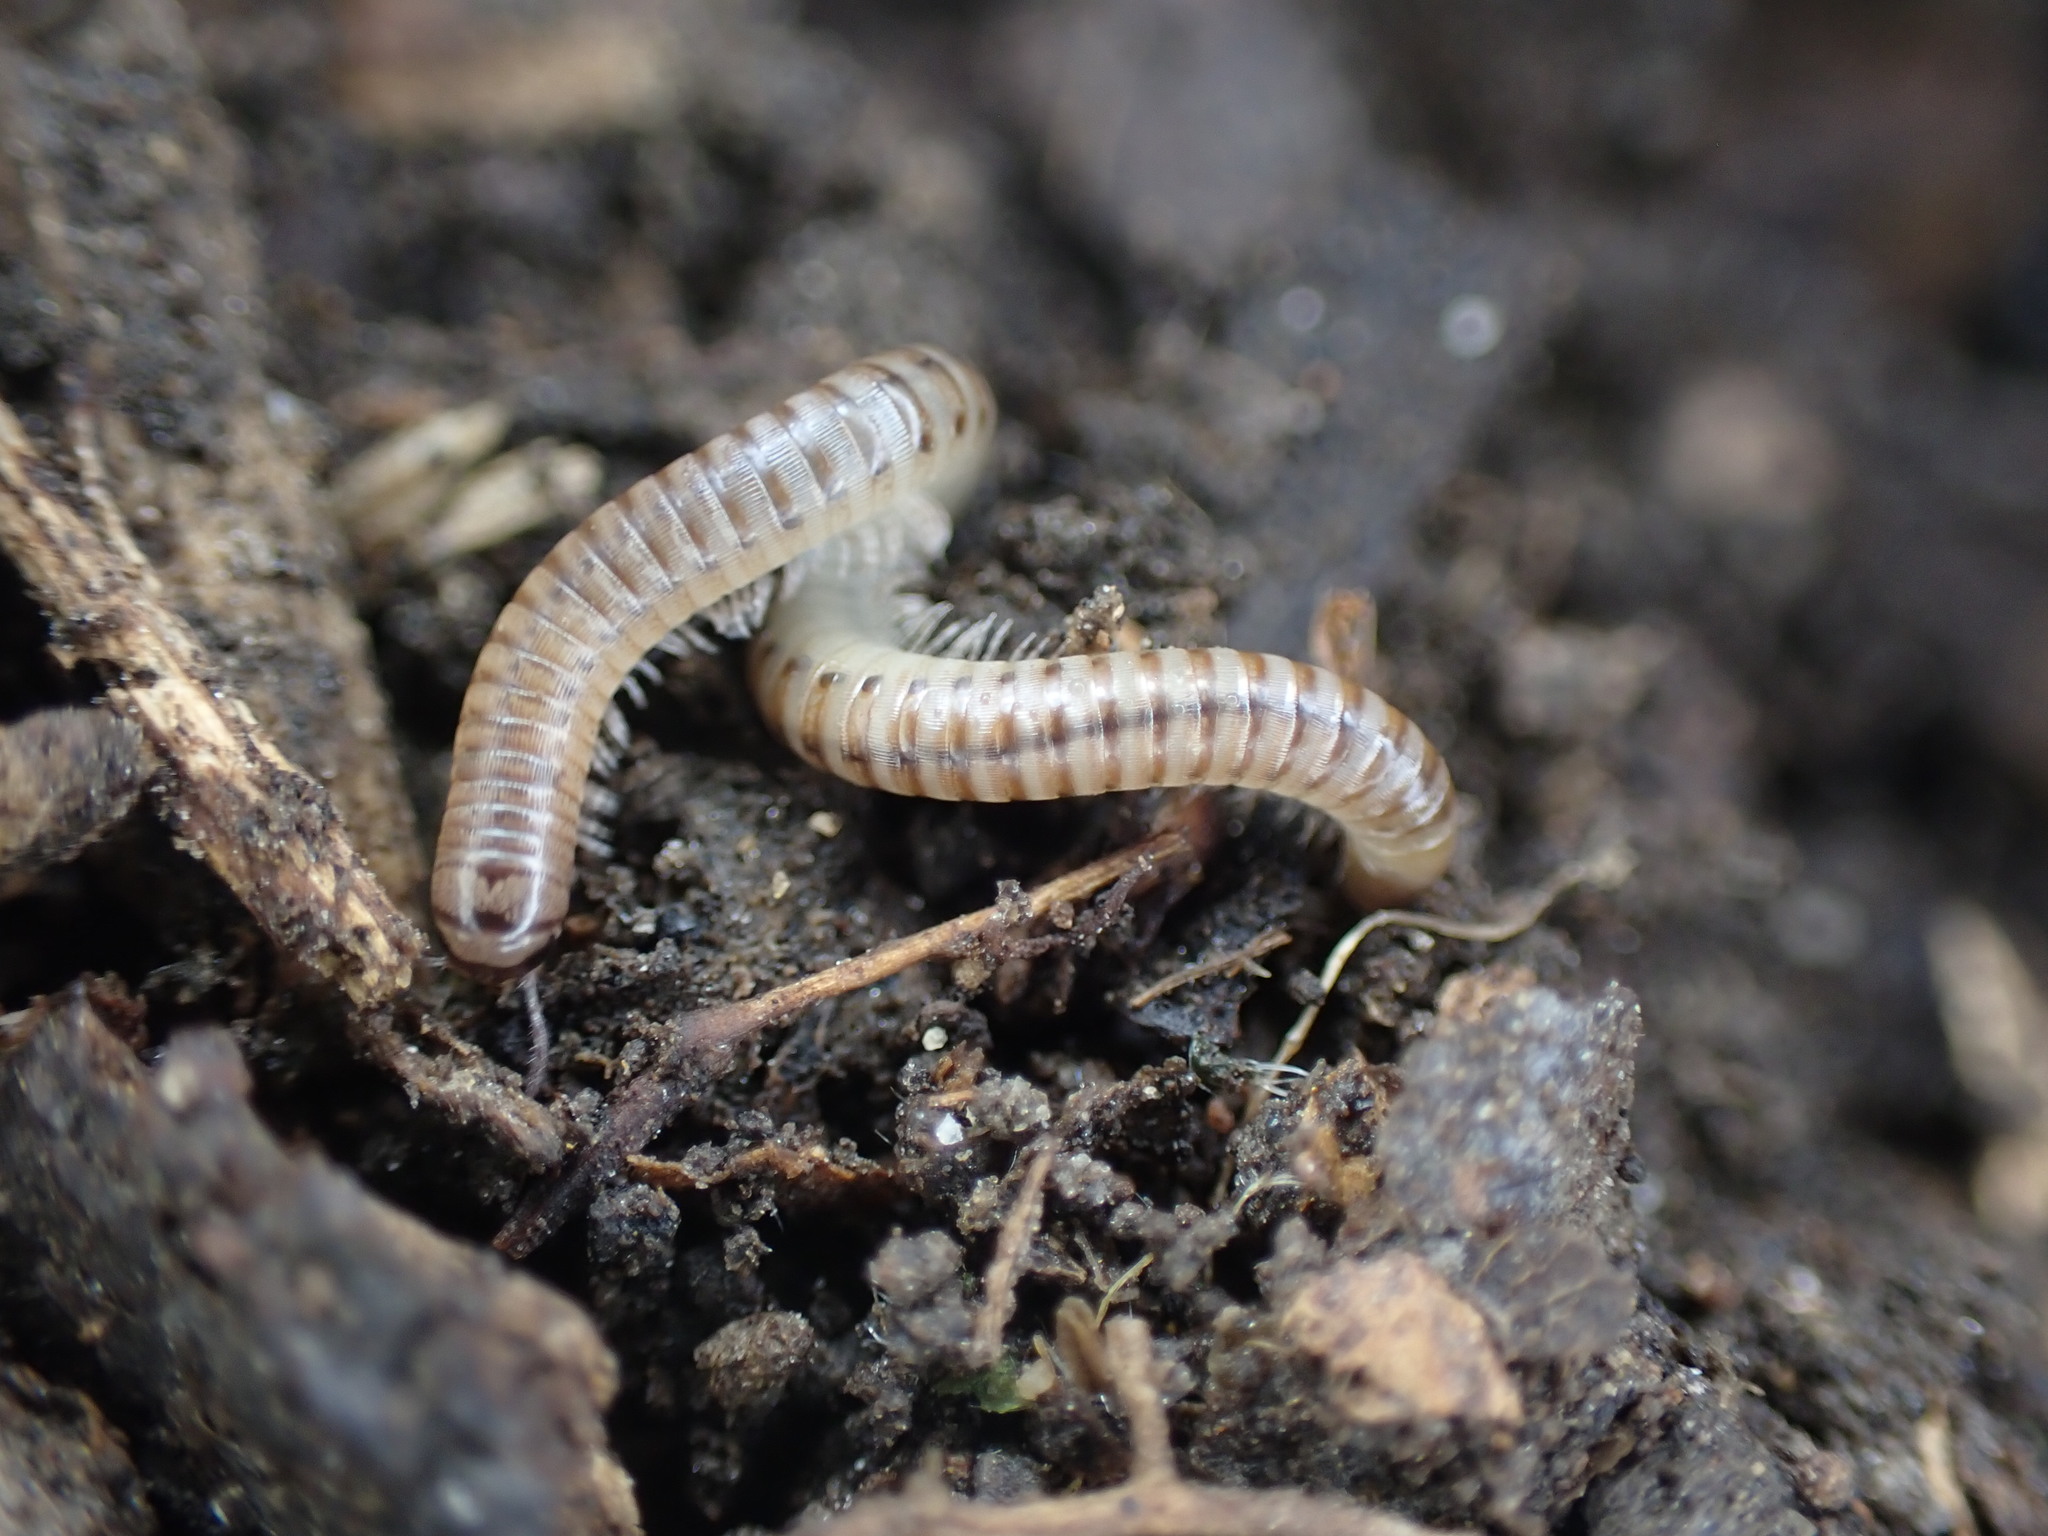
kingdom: Animalia
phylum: Arthropoda
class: Diplopoda
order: Julida
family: Julidae
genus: Cylindroiulus
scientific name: Cylindroiulus punctatus
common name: Blunt-tailed millipede
